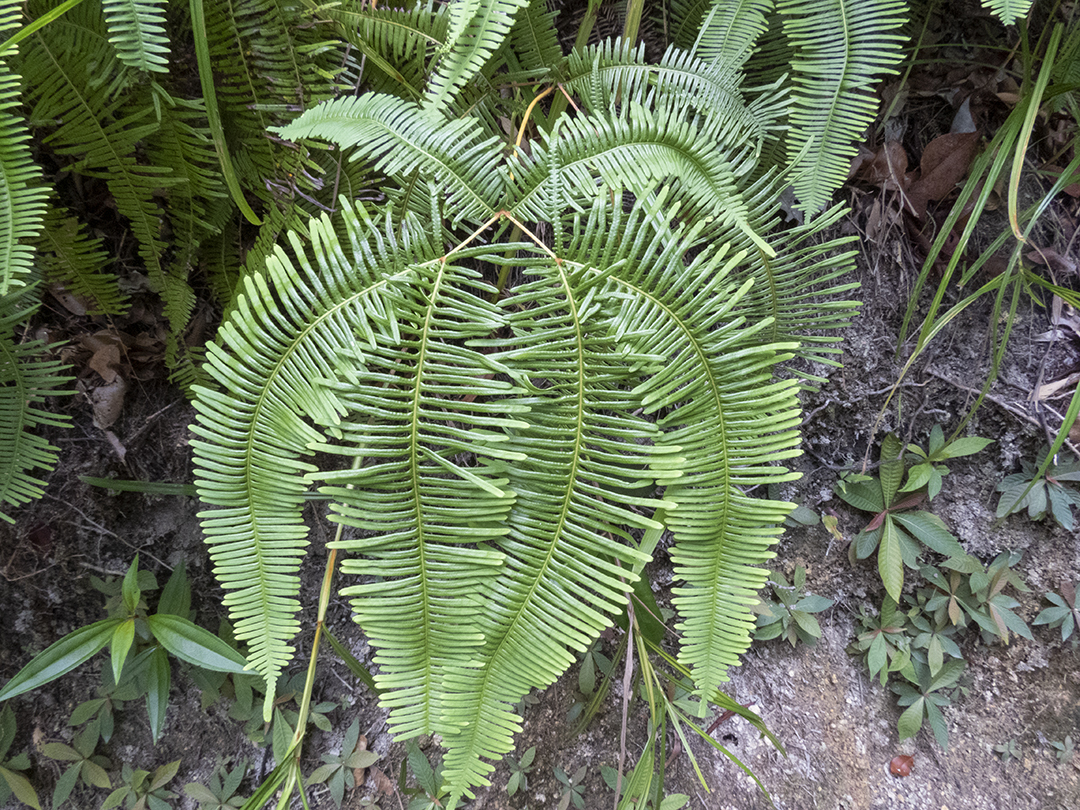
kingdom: Plantae
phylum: Tracheophyta
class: Polypodiopsida
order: Gleicheniales
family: Gleicheniaceae
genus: Dicranopteris
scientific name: Dicranopteris linearis
